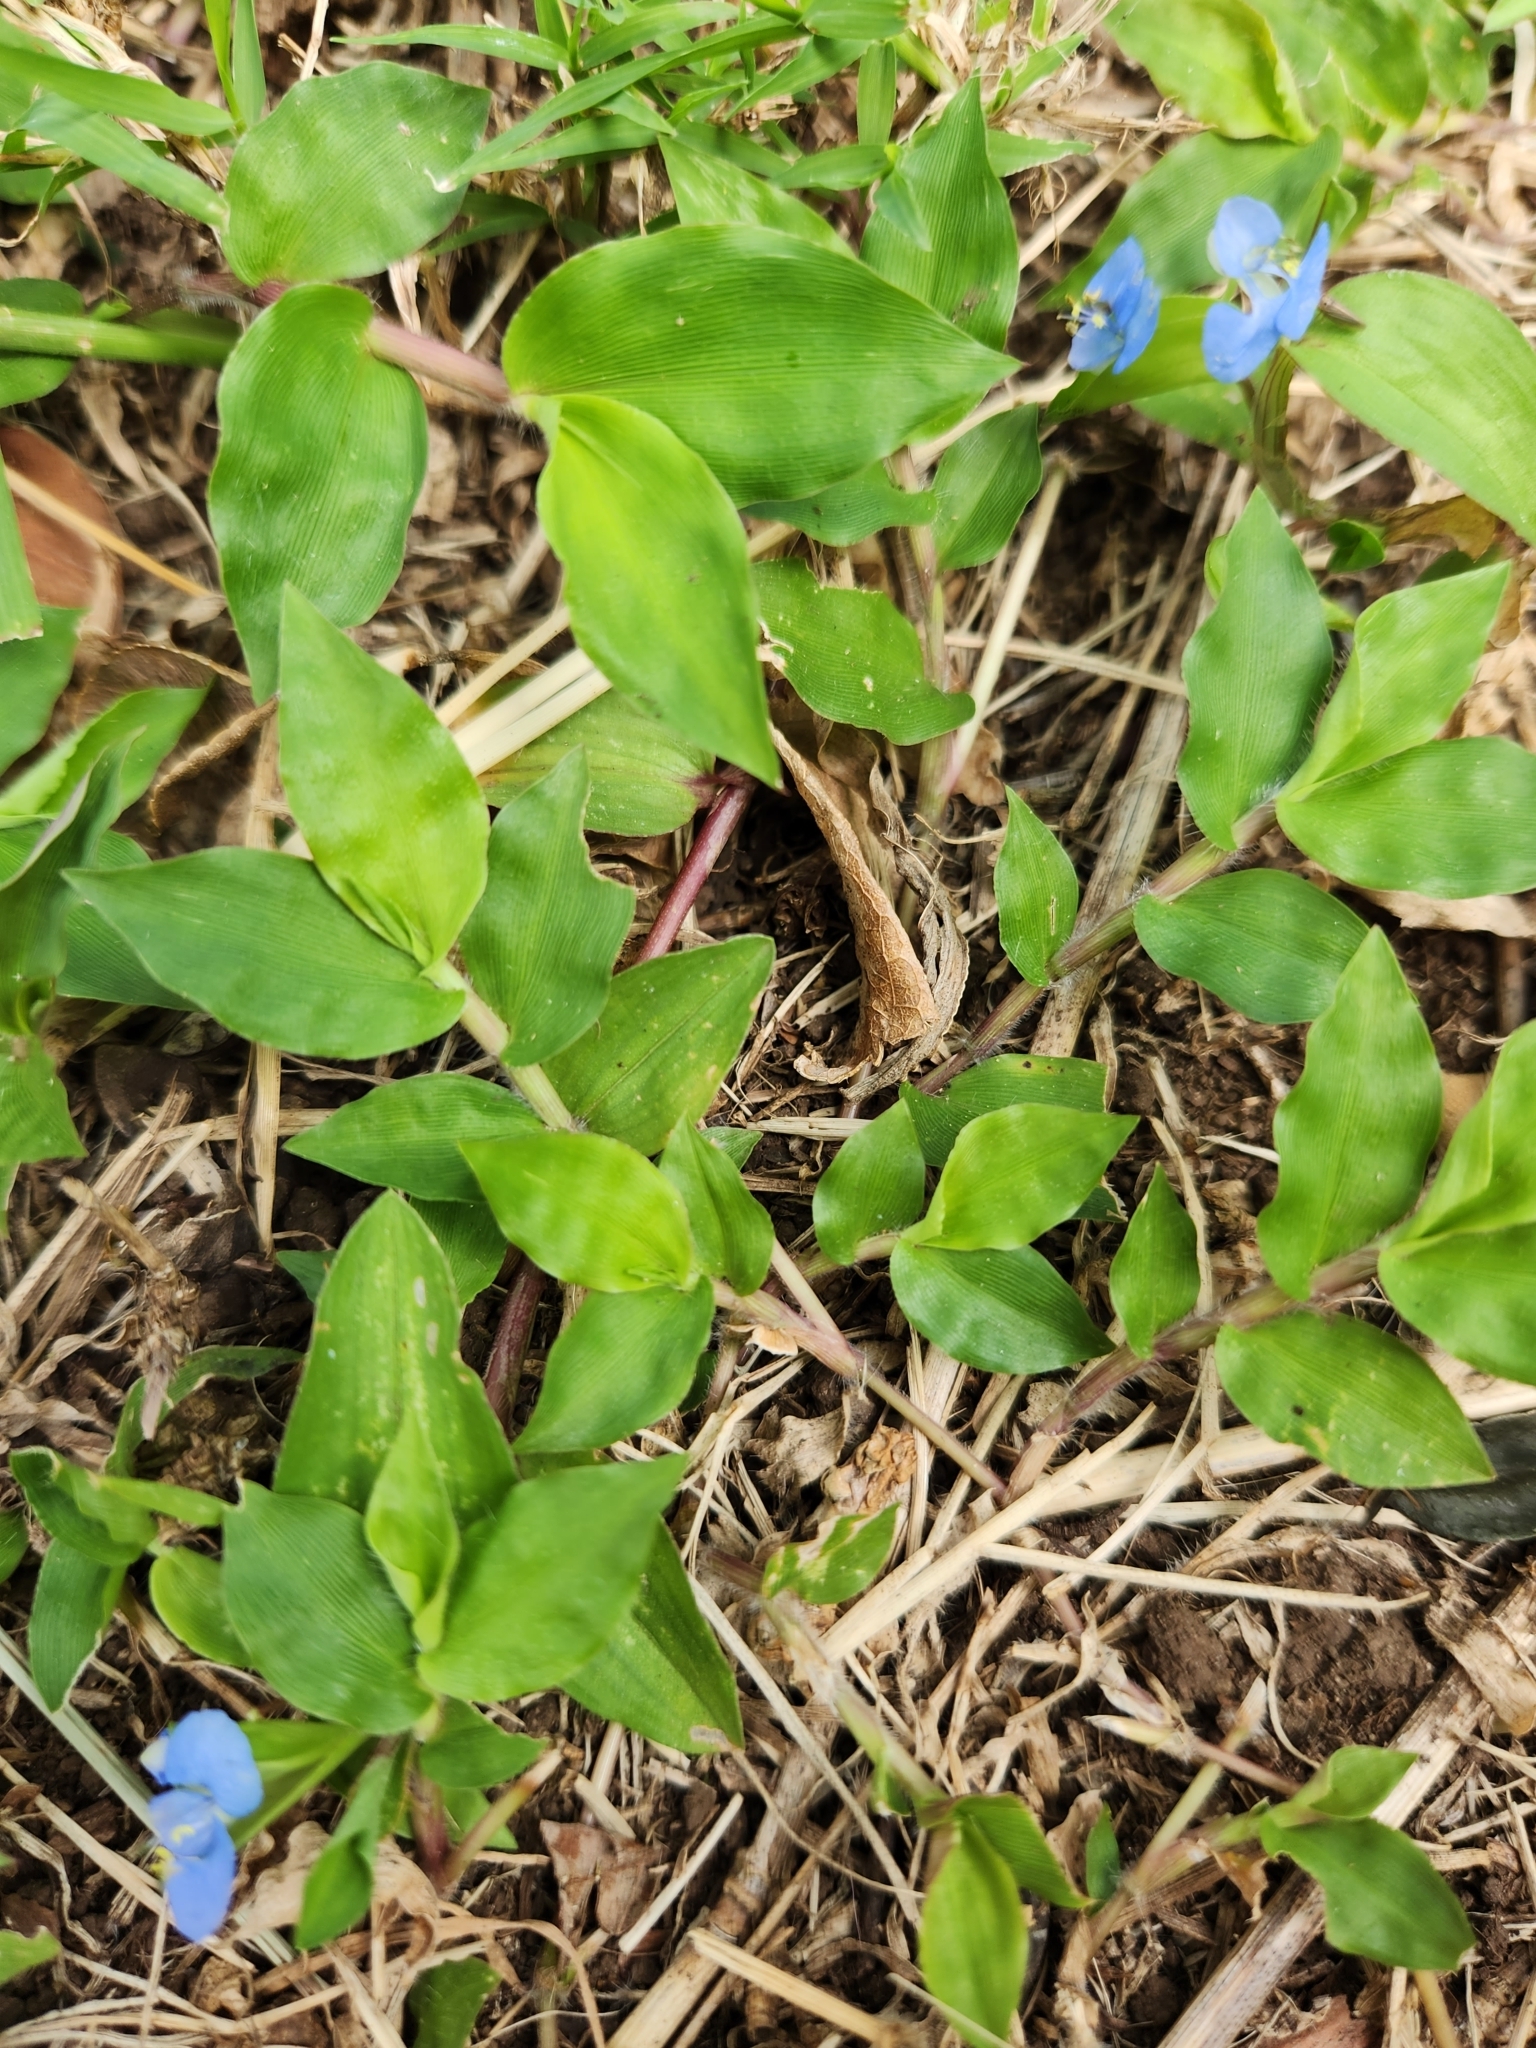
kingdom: Plantae
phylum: Tracheophyta
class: Liliopsida
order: Commelinales
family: Commelinaceae
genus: Commelina
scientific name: Commelina diffusa
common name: Climbing dayflower
